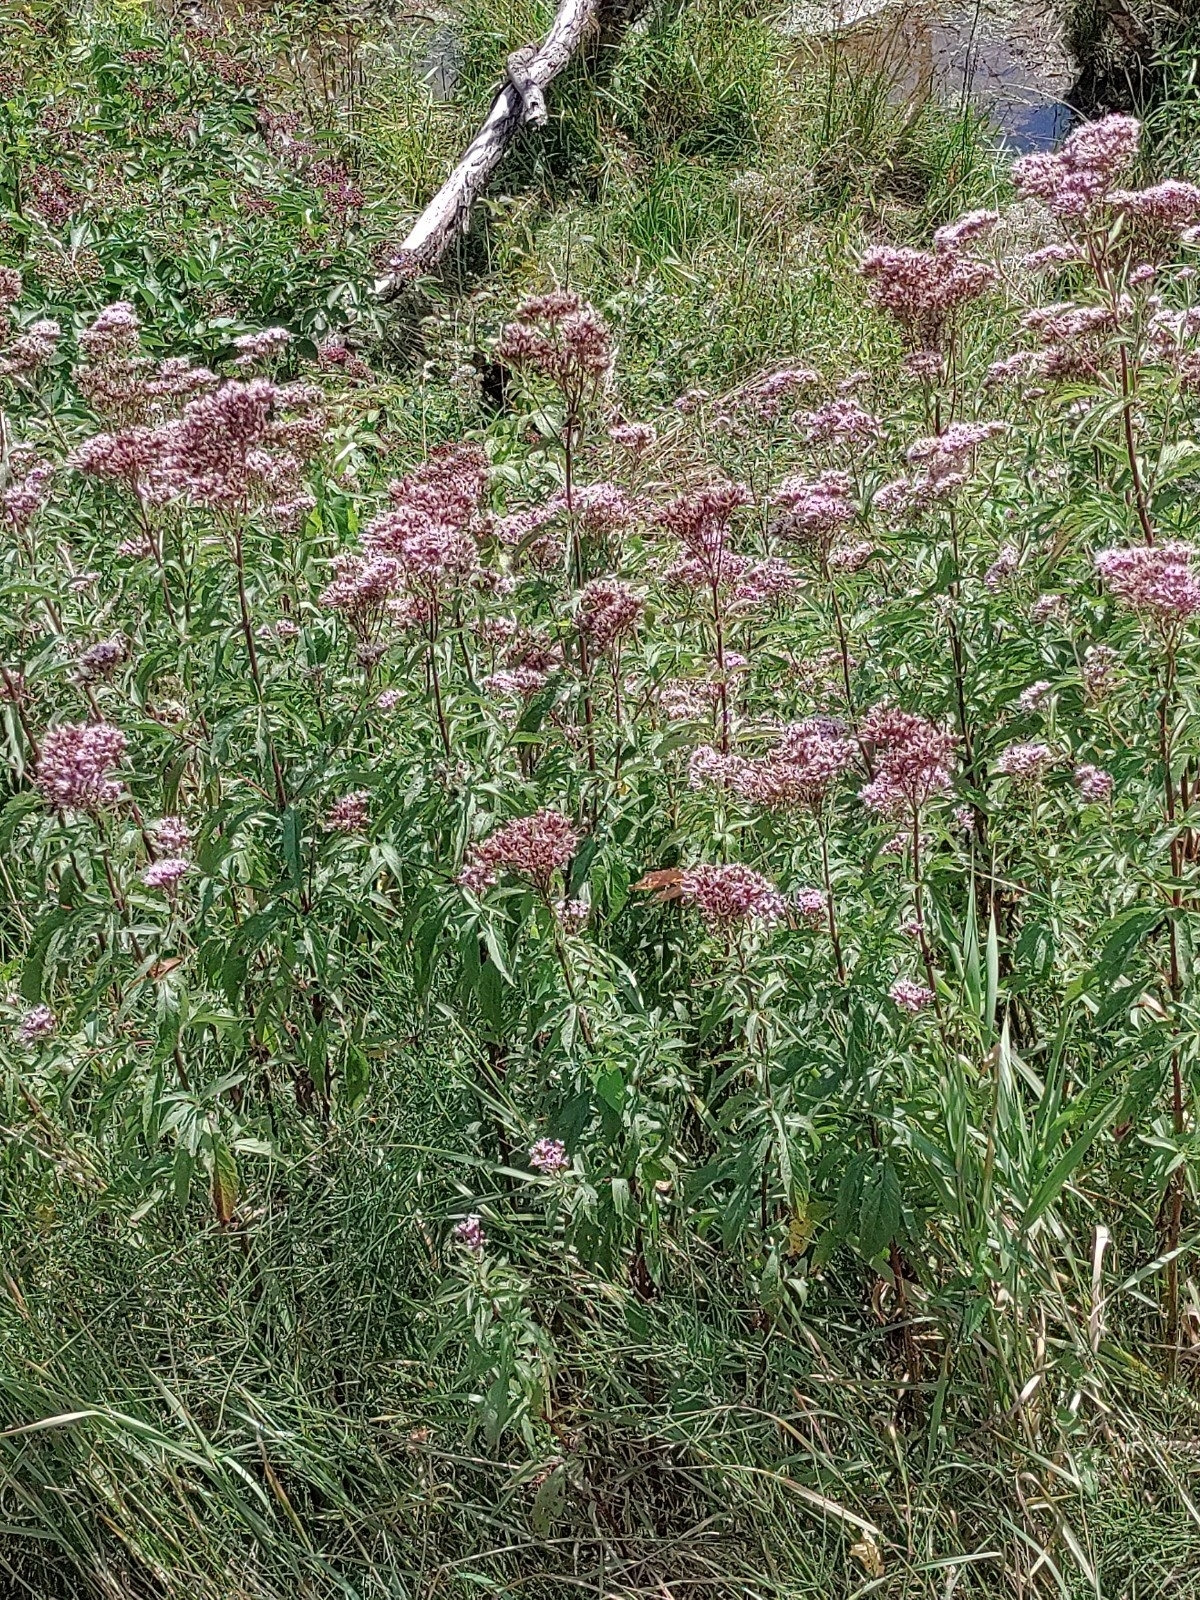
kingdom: Plantae
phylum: Tracheophyta
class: Magnoliopsida
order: Asterales
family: Asteraceae
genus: Eupatorium
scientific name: Eupatorium cannabinum
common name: Hemp-agrimony
